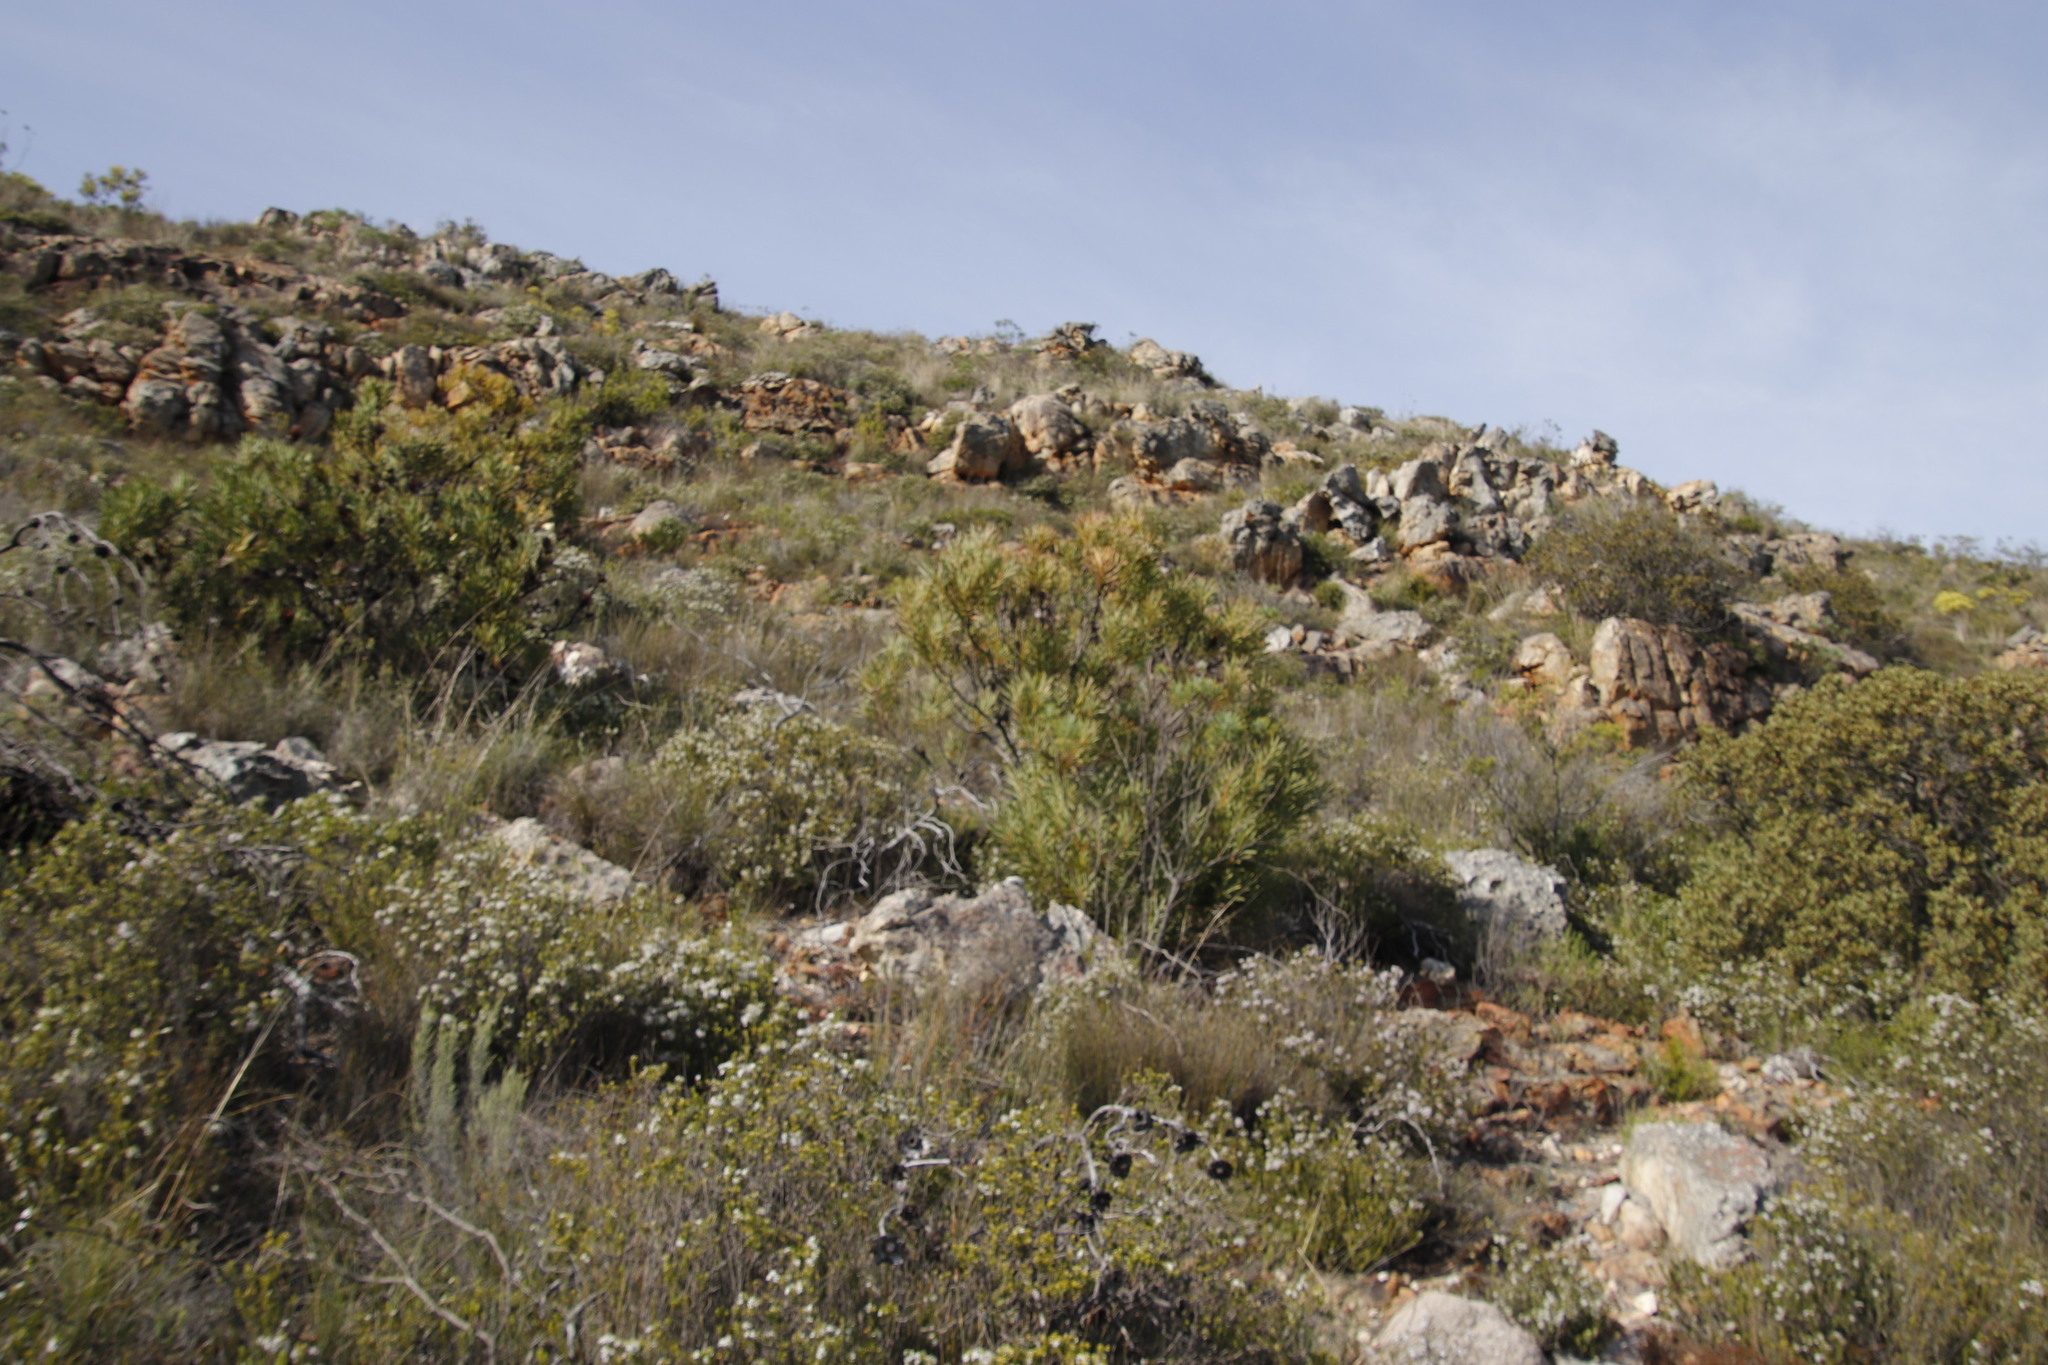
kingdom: Plantae
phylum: Tracheophyta
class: Magnoliopsida
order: Proteales
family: Proteaceae
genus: Protea
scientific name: Protea repens
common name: Sugarbush
